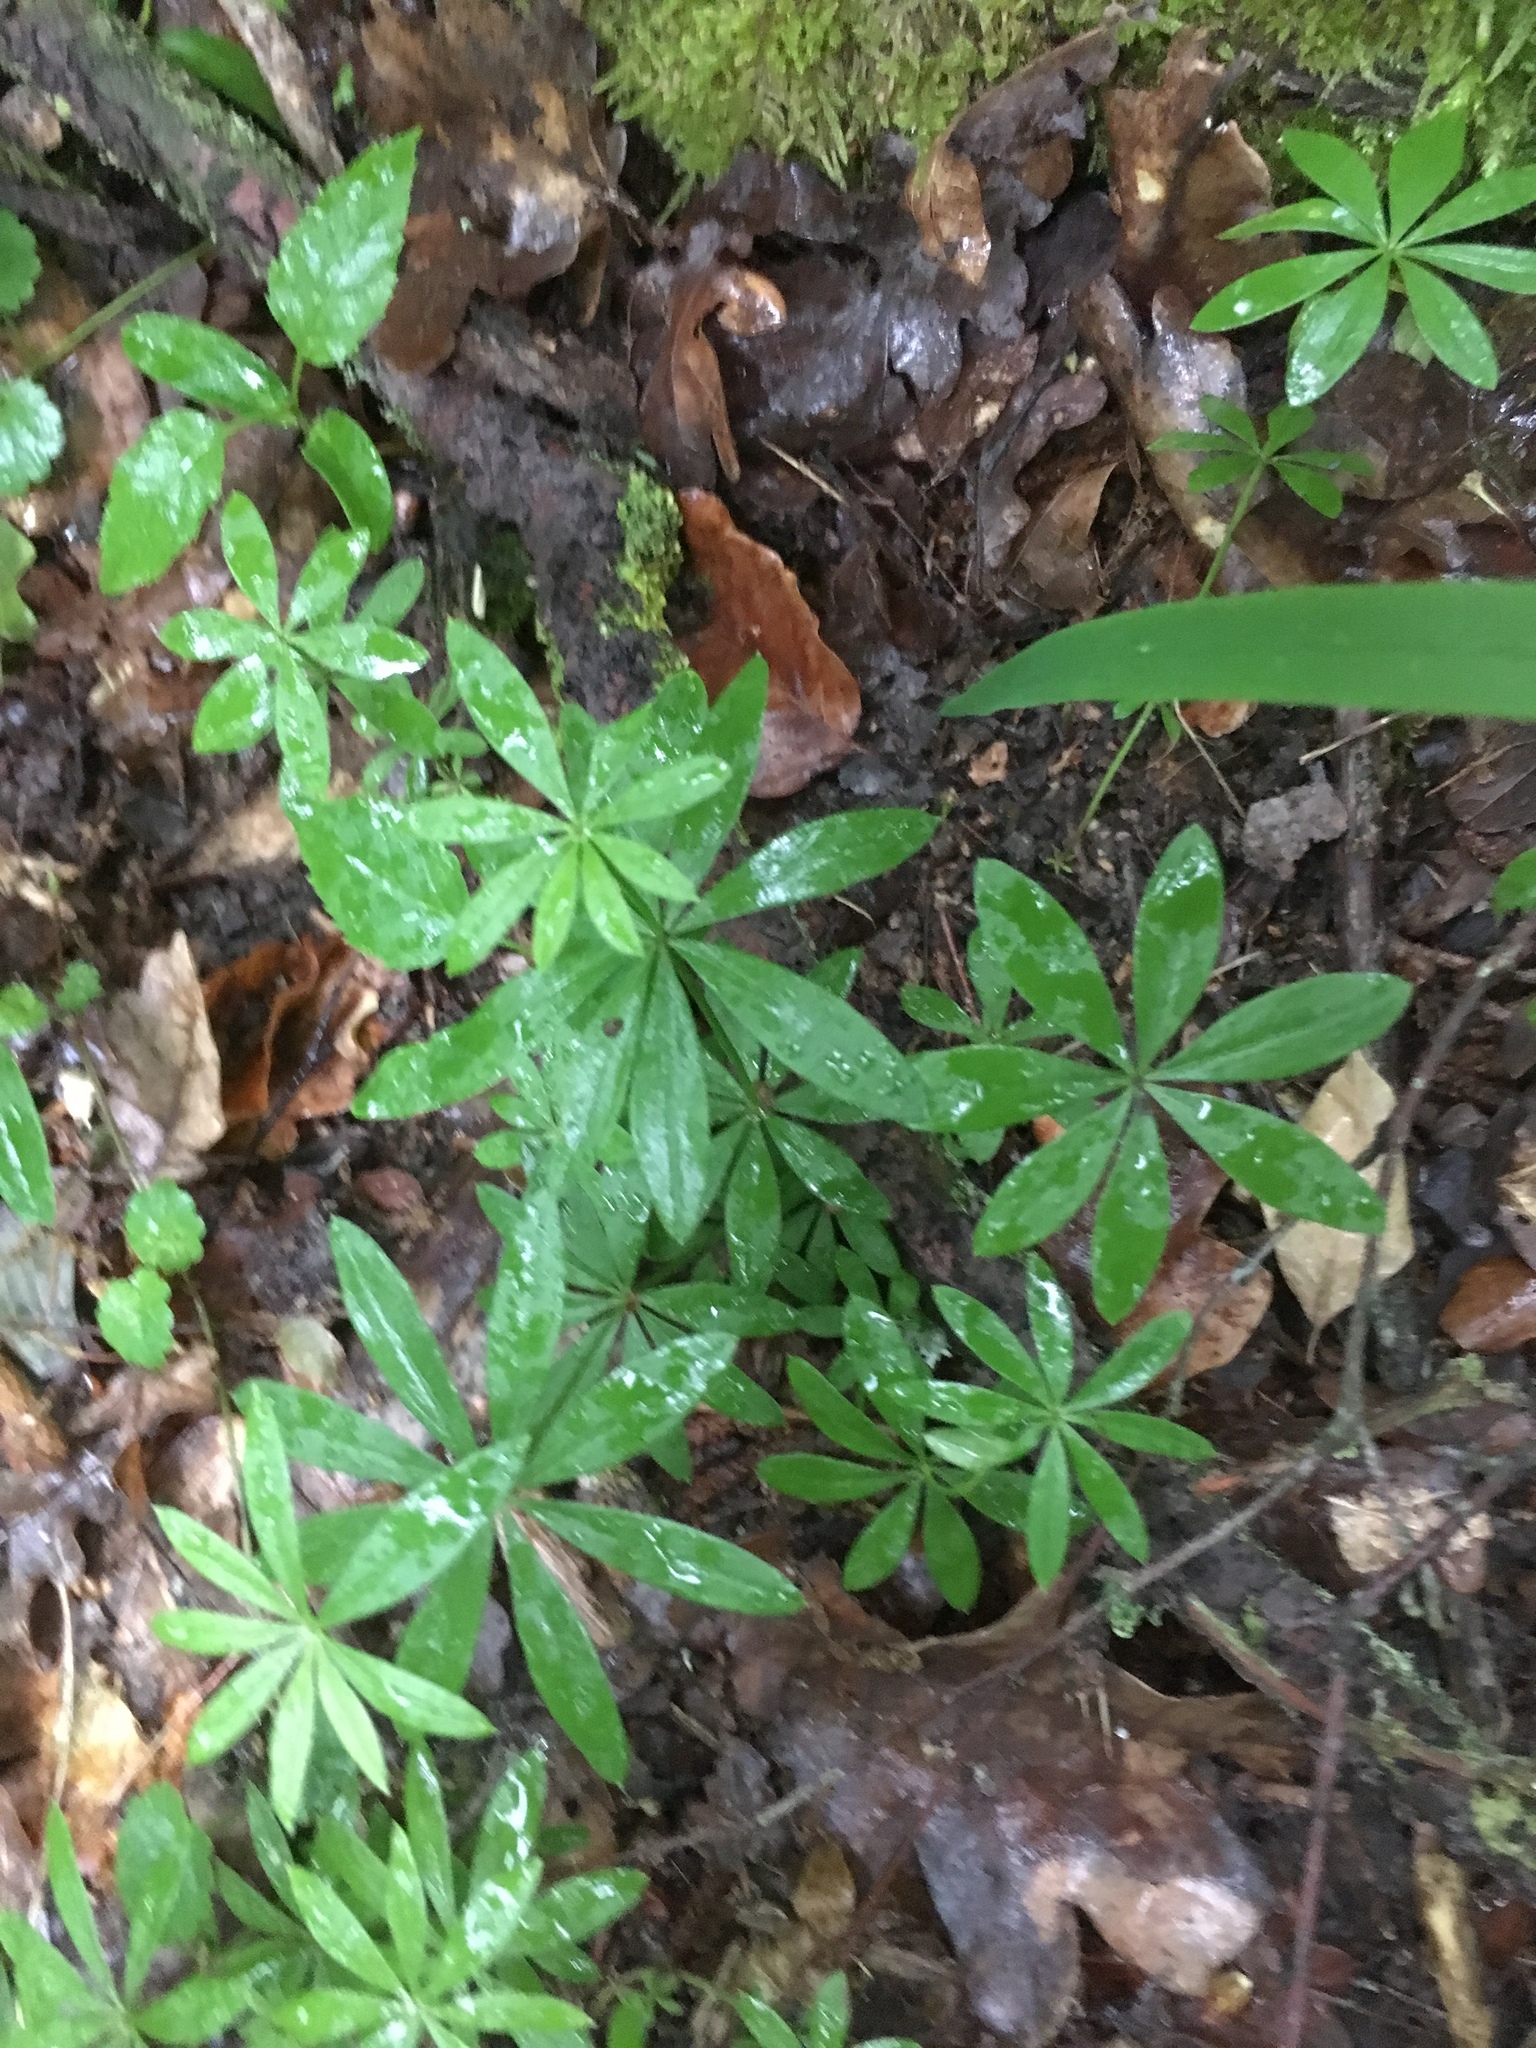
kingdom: Plantae
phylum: Tracheophyta
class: Magnoliopsida
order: Gentianales
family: Rubiaceae
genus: Galium
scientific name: Galium odoratum
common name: Sweet woodruff
